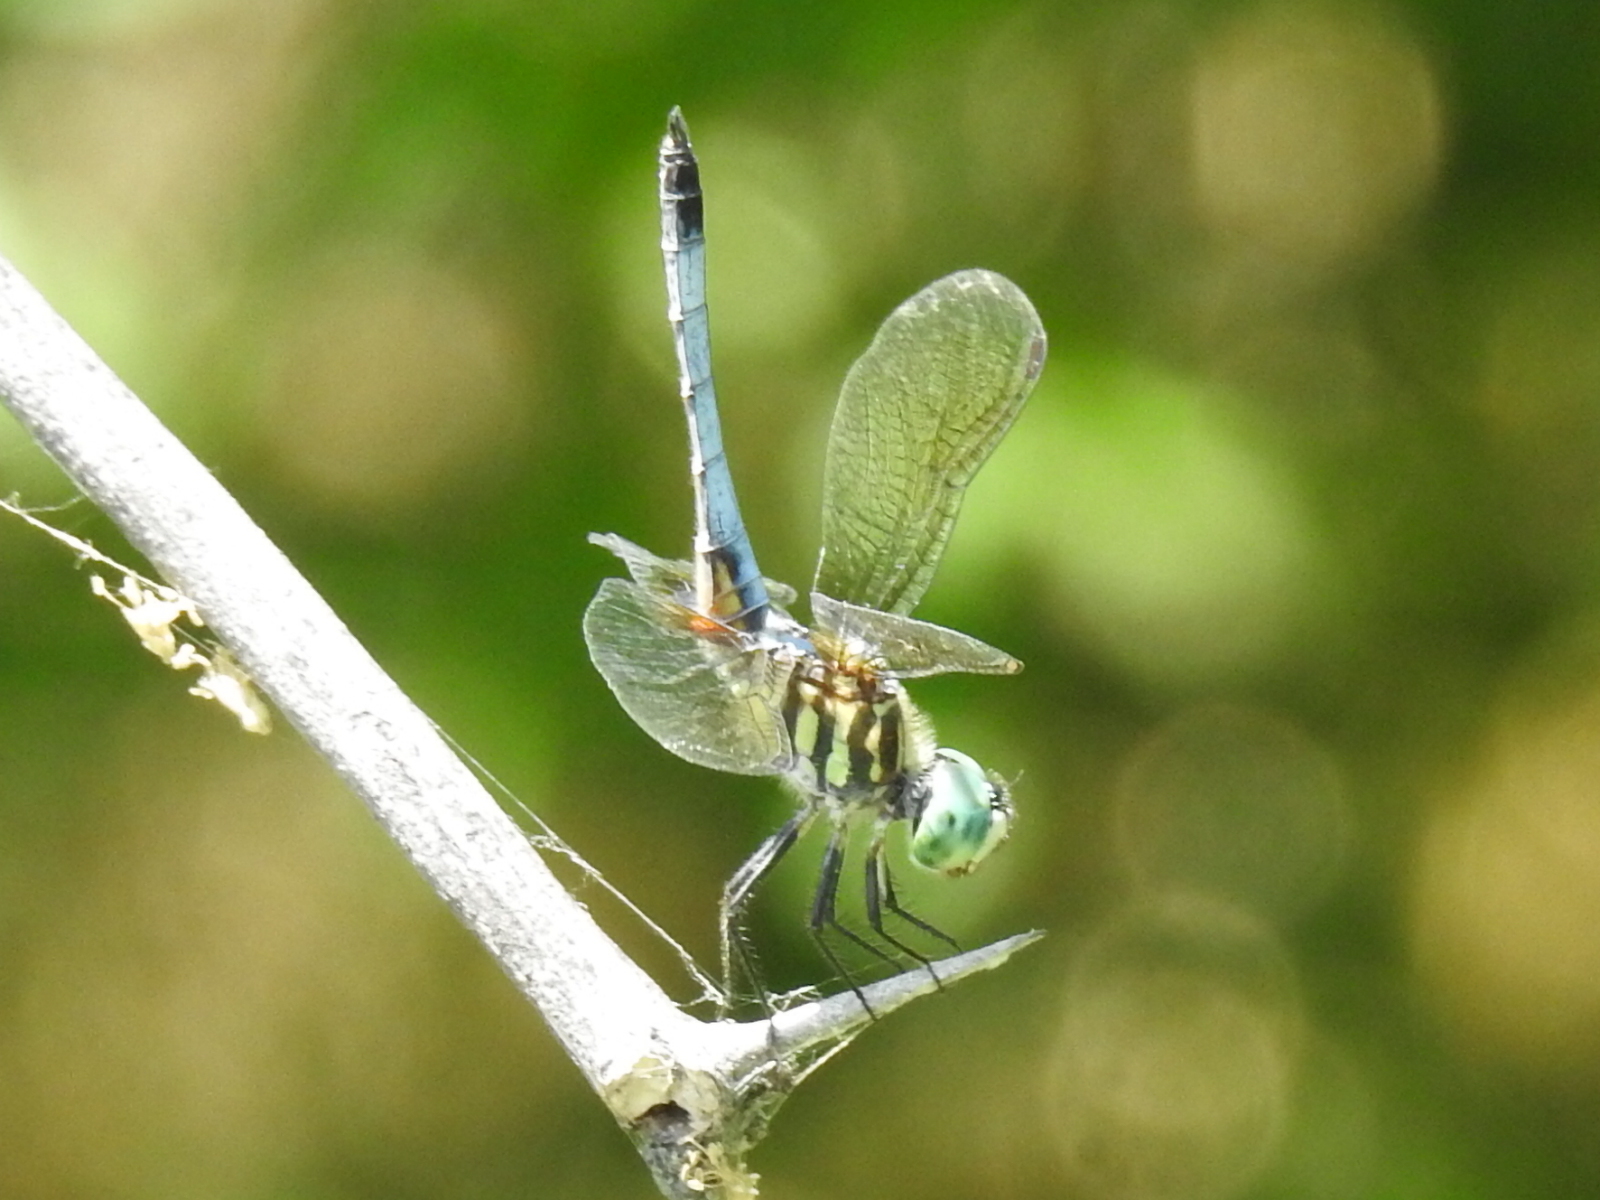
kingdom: Animalia
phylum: Arthropoda
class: Insecta
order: Odonata
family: Libellulidae
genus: Pachydiplax
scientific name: Pachydiplax longipennis
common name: Blue dasher
